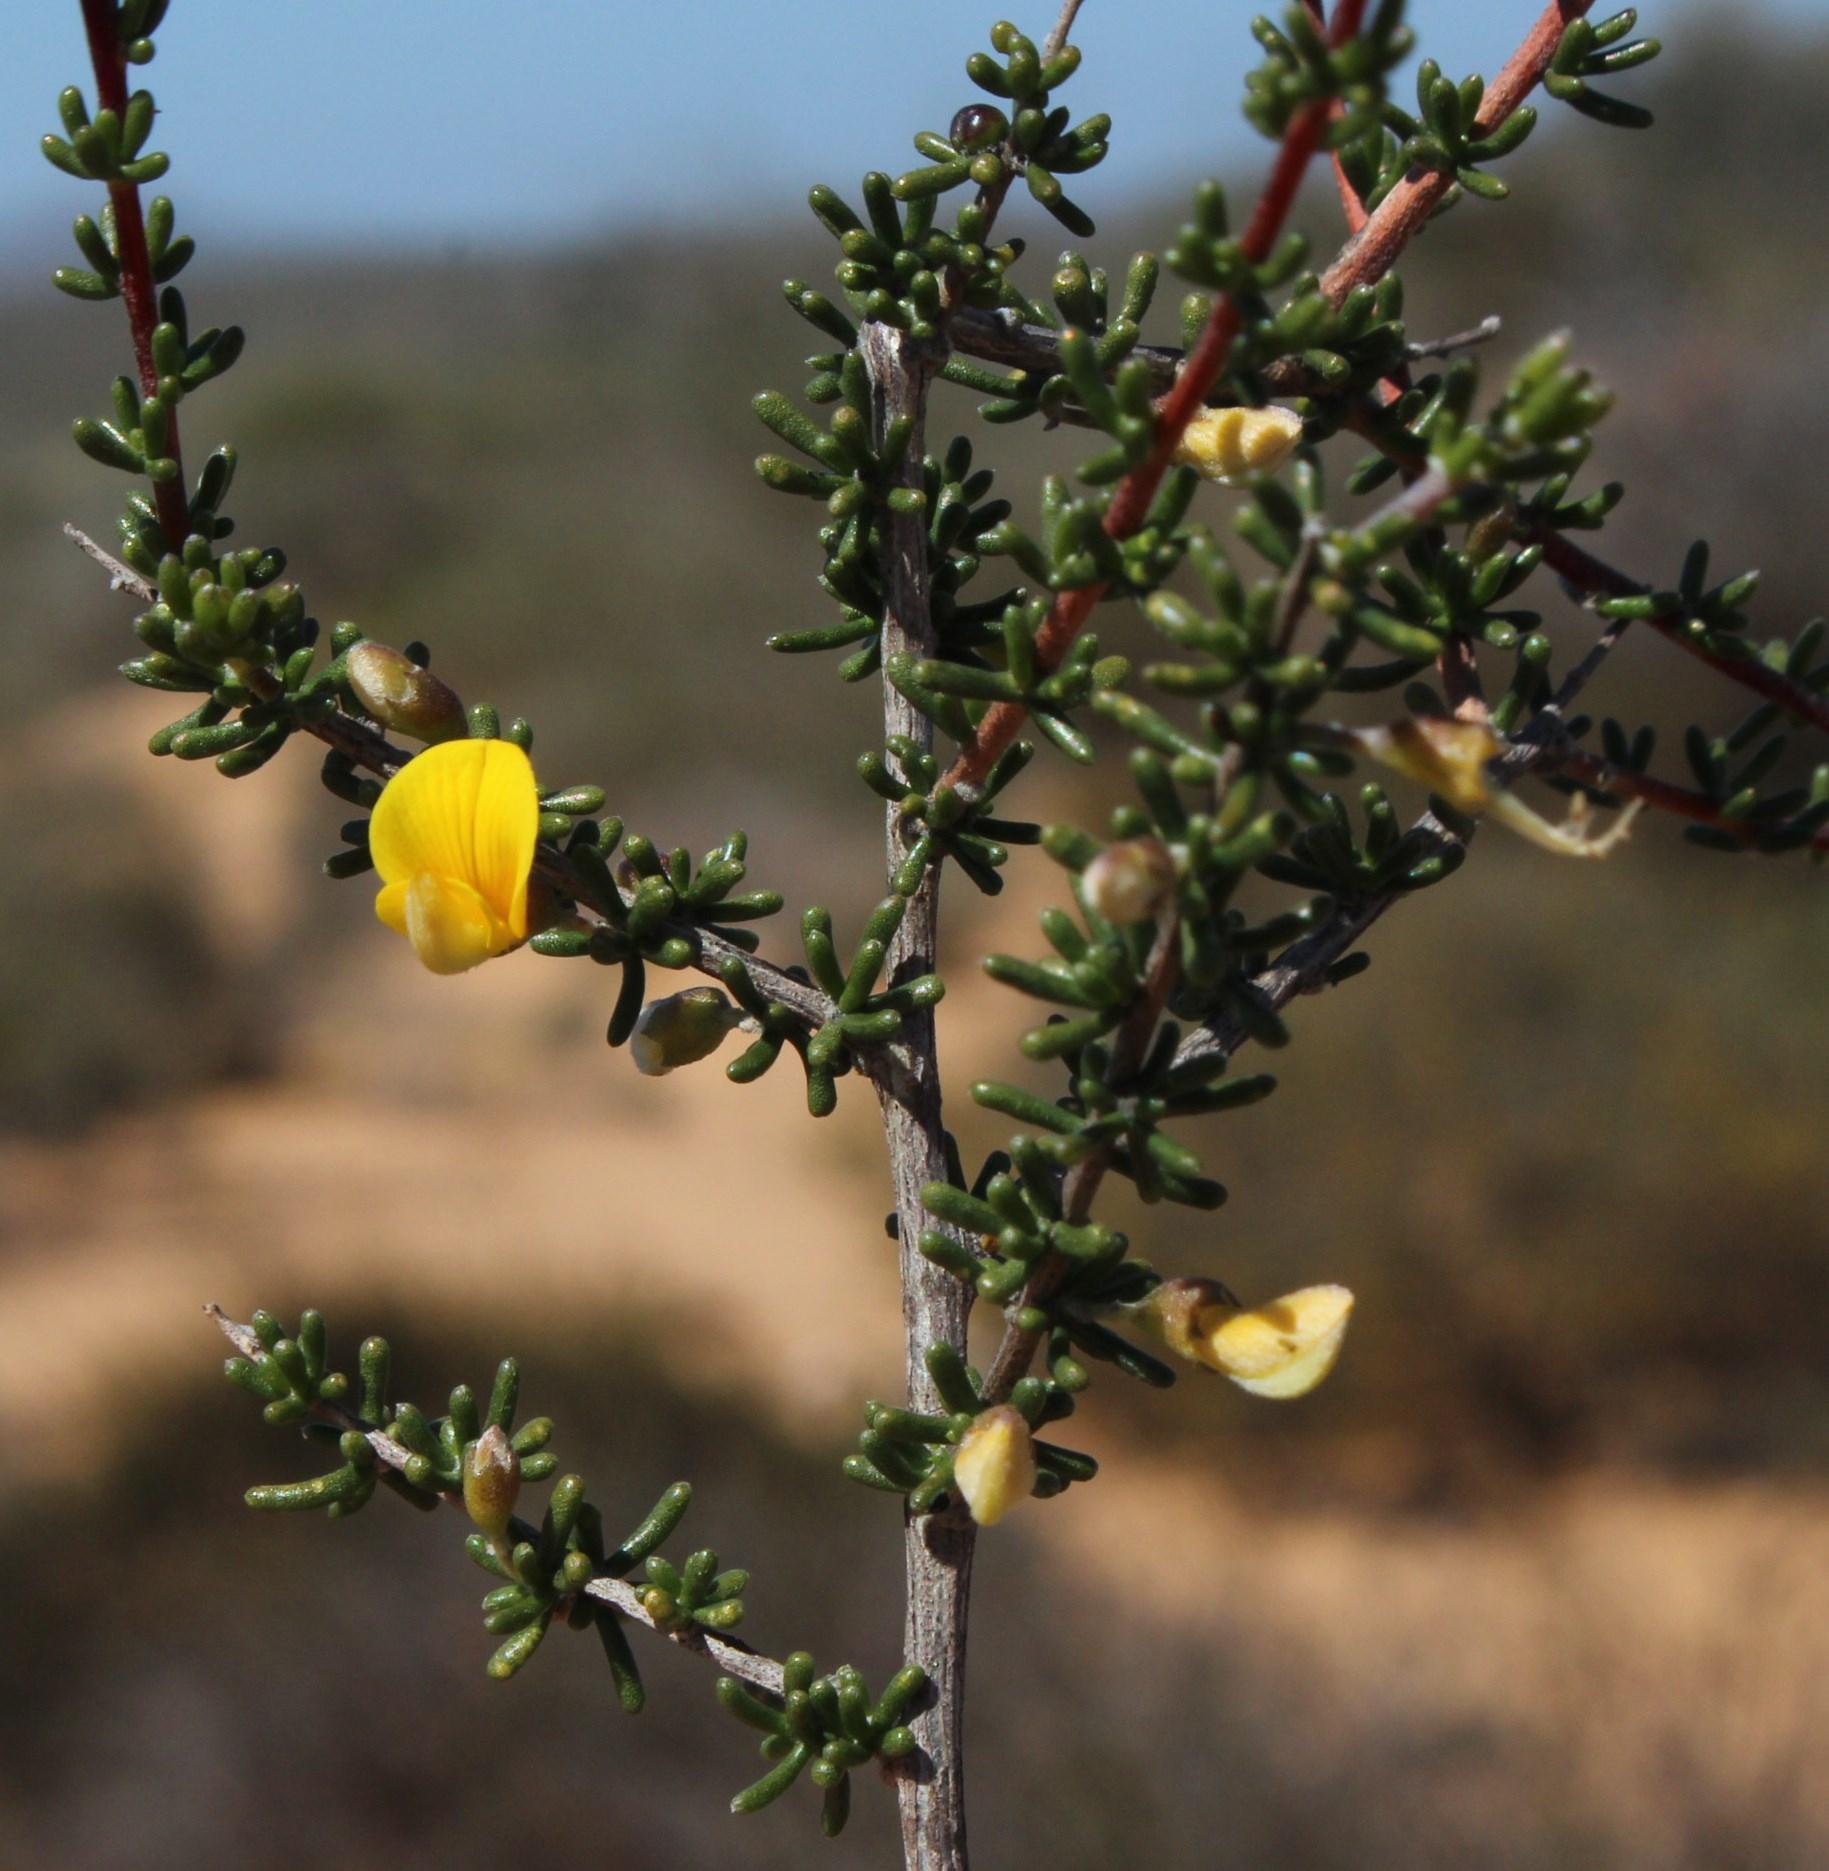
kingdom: Plantae
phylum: Tracheophyta
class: Magnoliopsida
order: Fabales
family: Fabaceae
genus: Aspalathus
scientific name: Aspalathus spinescens
